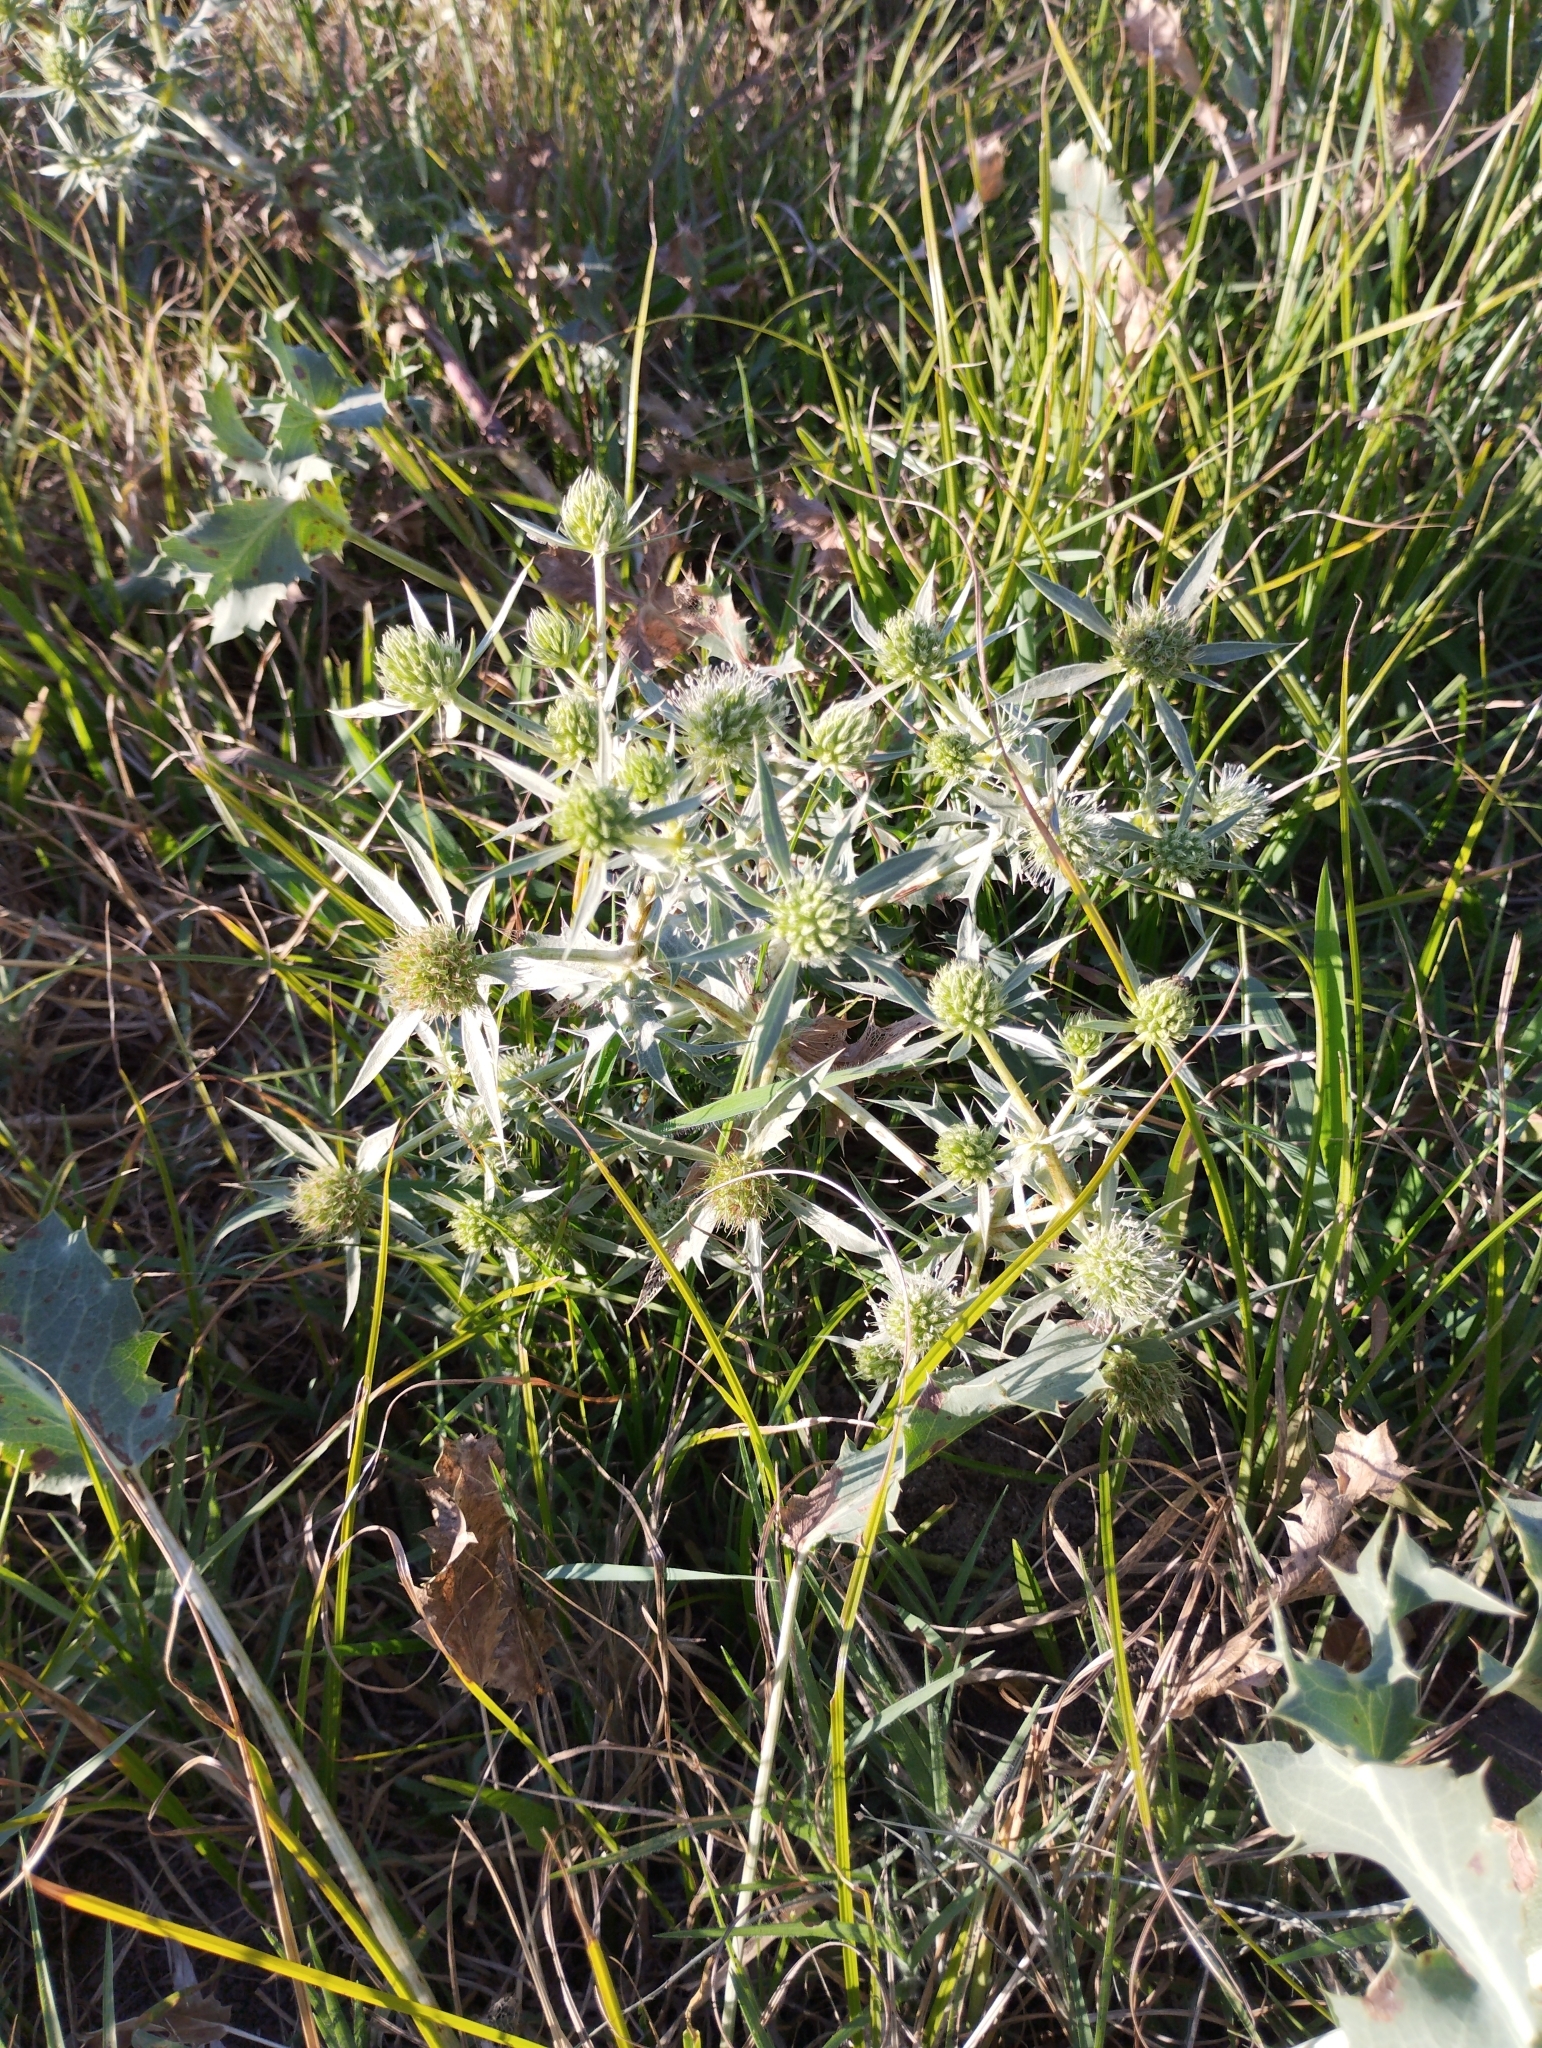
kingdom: Plantae
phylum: Tracheophyta
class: Magnoliopsida
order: Apiales
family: Apiaceae
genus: Eryngium
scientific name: Eryngium campestre
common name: Field eryngo
